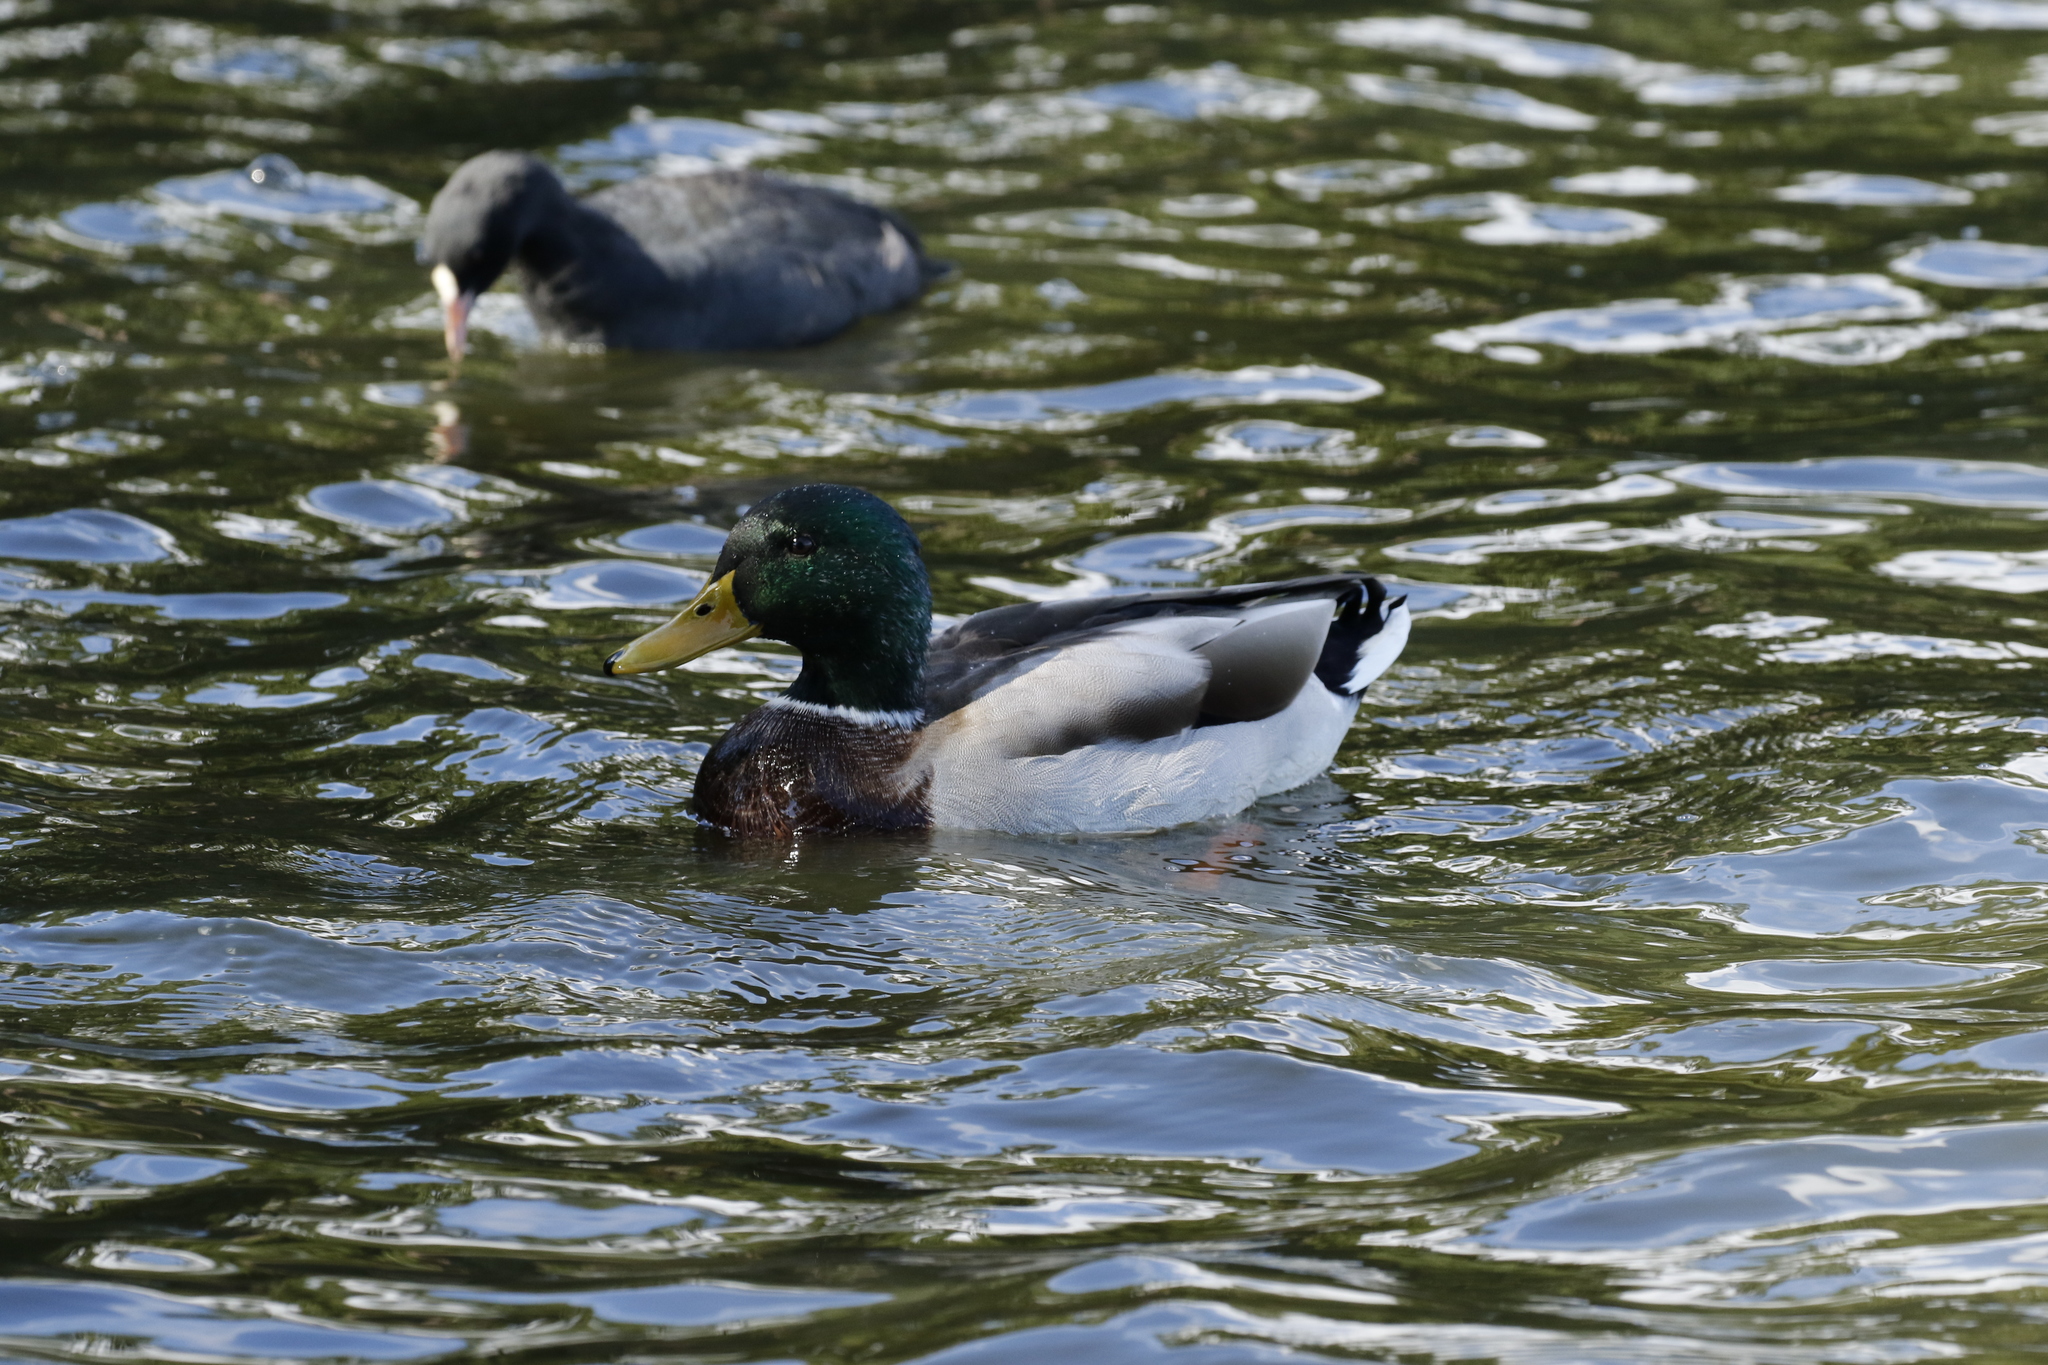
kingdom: Animalia
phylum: Chordata
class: Aves
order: Anseriformes
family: Anatidae
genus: Anas
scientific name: Anas platyrhynchos
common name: Mallard
